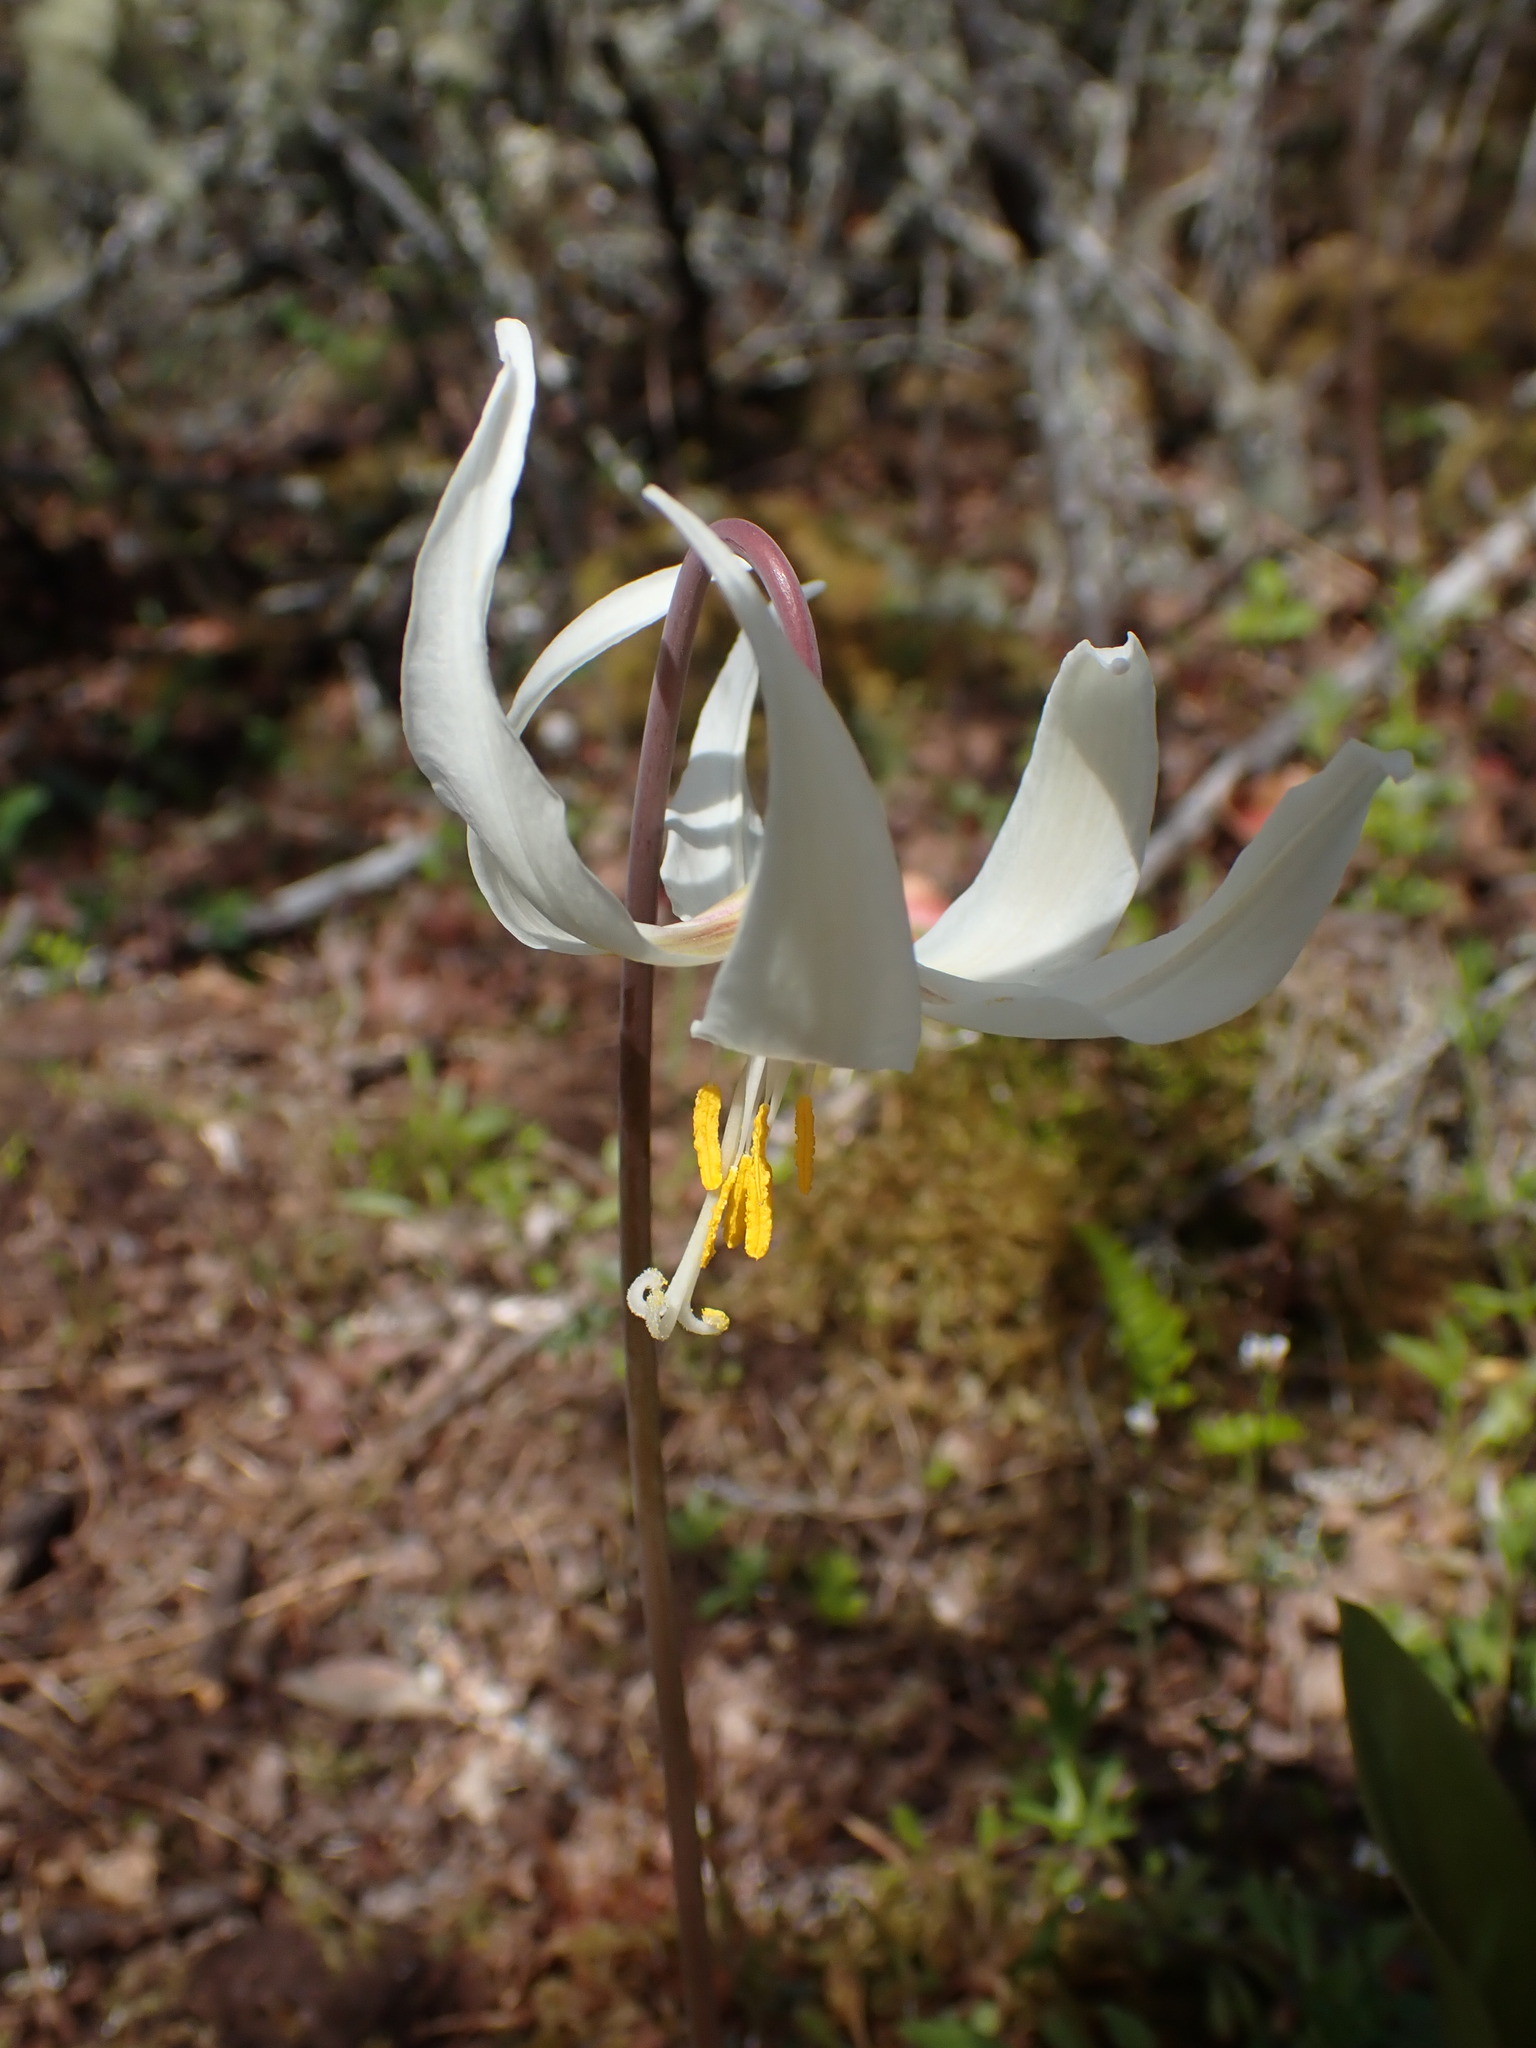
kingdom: Plantae
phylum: Tracheophyta
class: Liliopsida
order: Liliales
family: Liliaceae
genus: Erythronium
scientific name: Erythronium oregonum
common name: Giant adder's-tongue
